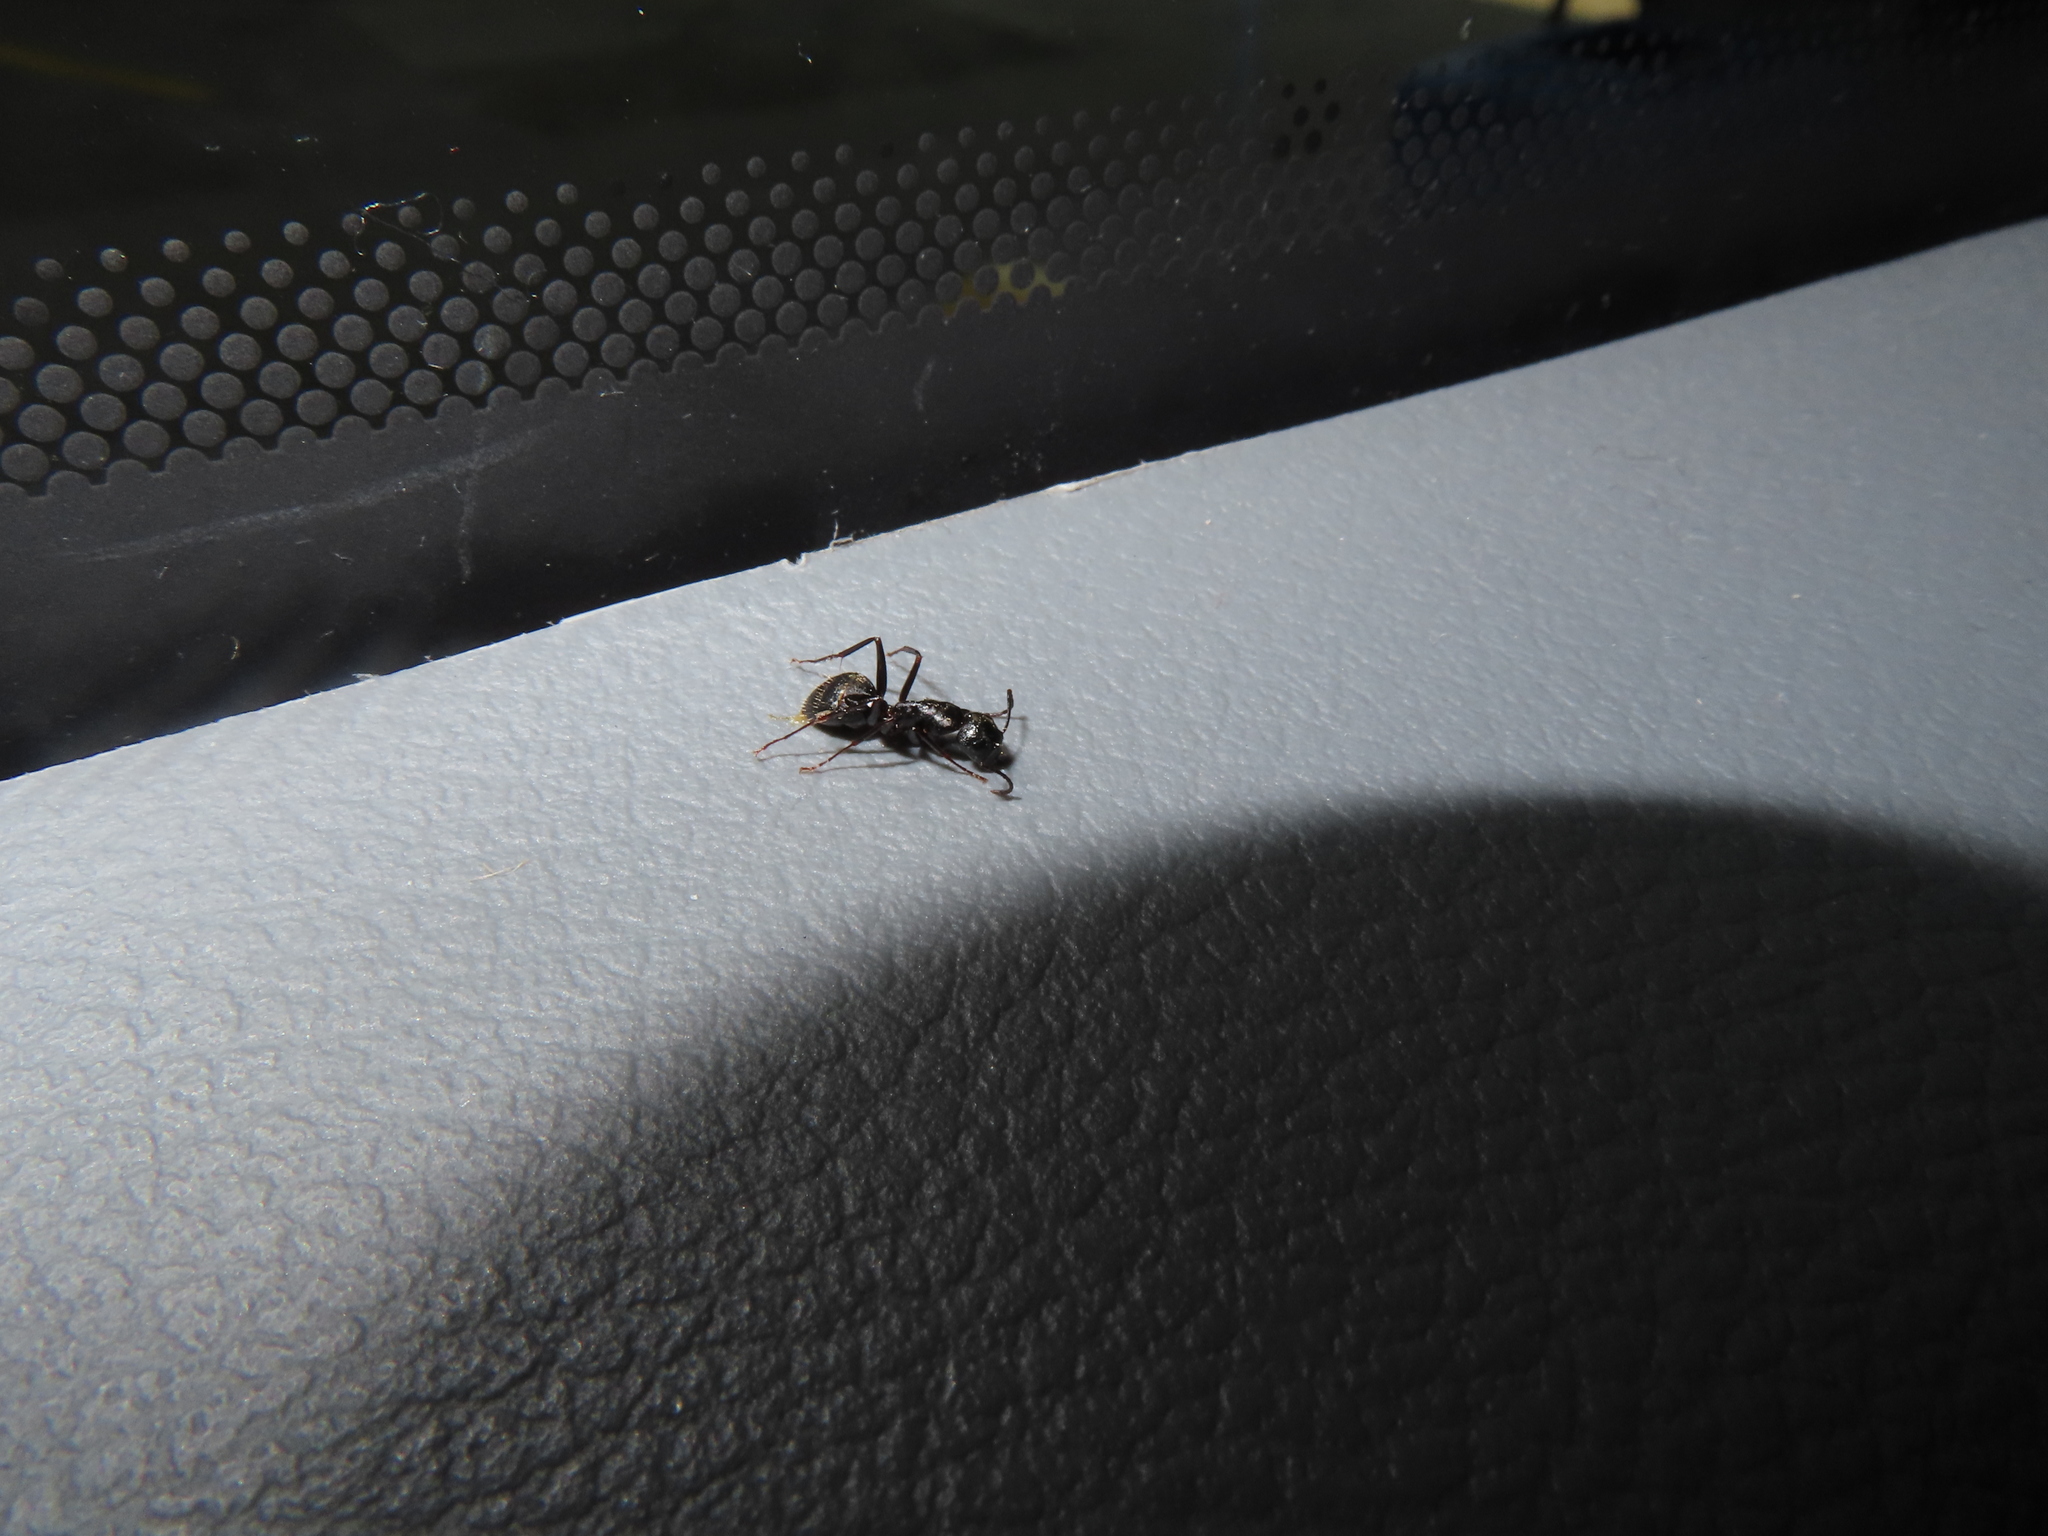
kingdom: Animalia
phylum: Arthropoda
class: Insecta
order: Hymenoptera
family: Formicidae
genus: Camponotus
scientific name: Camponotus pennsylvanicus
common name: Black carpenter ant
